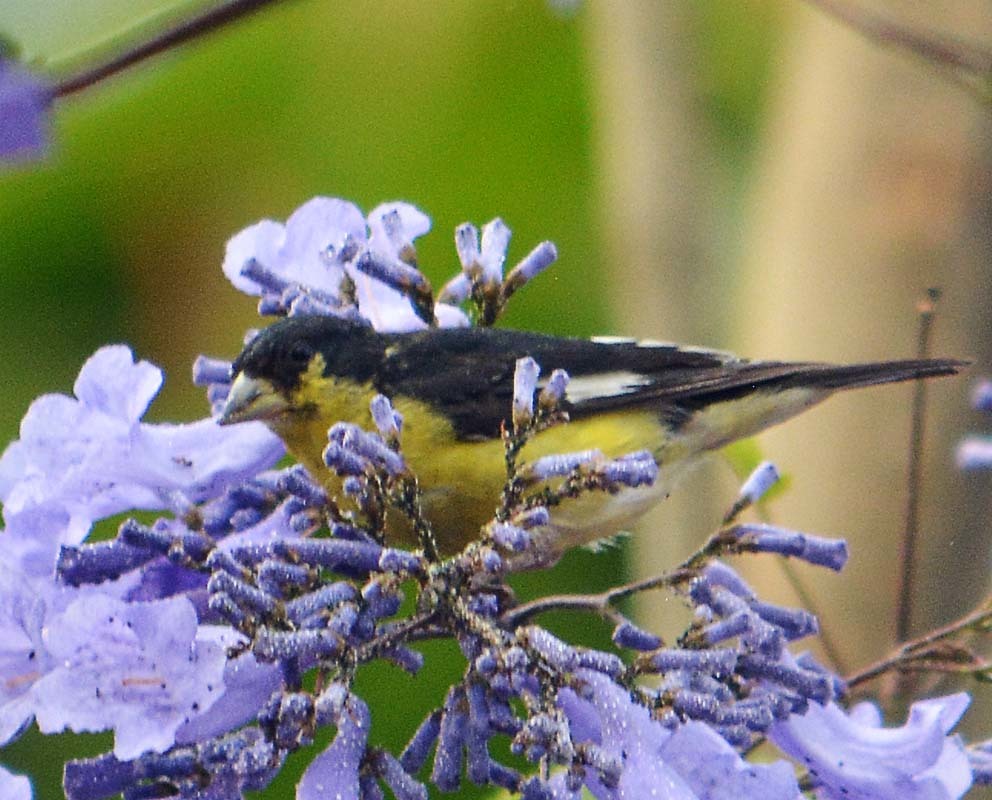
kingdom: Animalia
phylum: Chordata
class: Aves
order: Passeriformes
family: Fringillidae
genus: Spinus
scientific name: Spinus psaltria
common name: Lesser goldfinch
